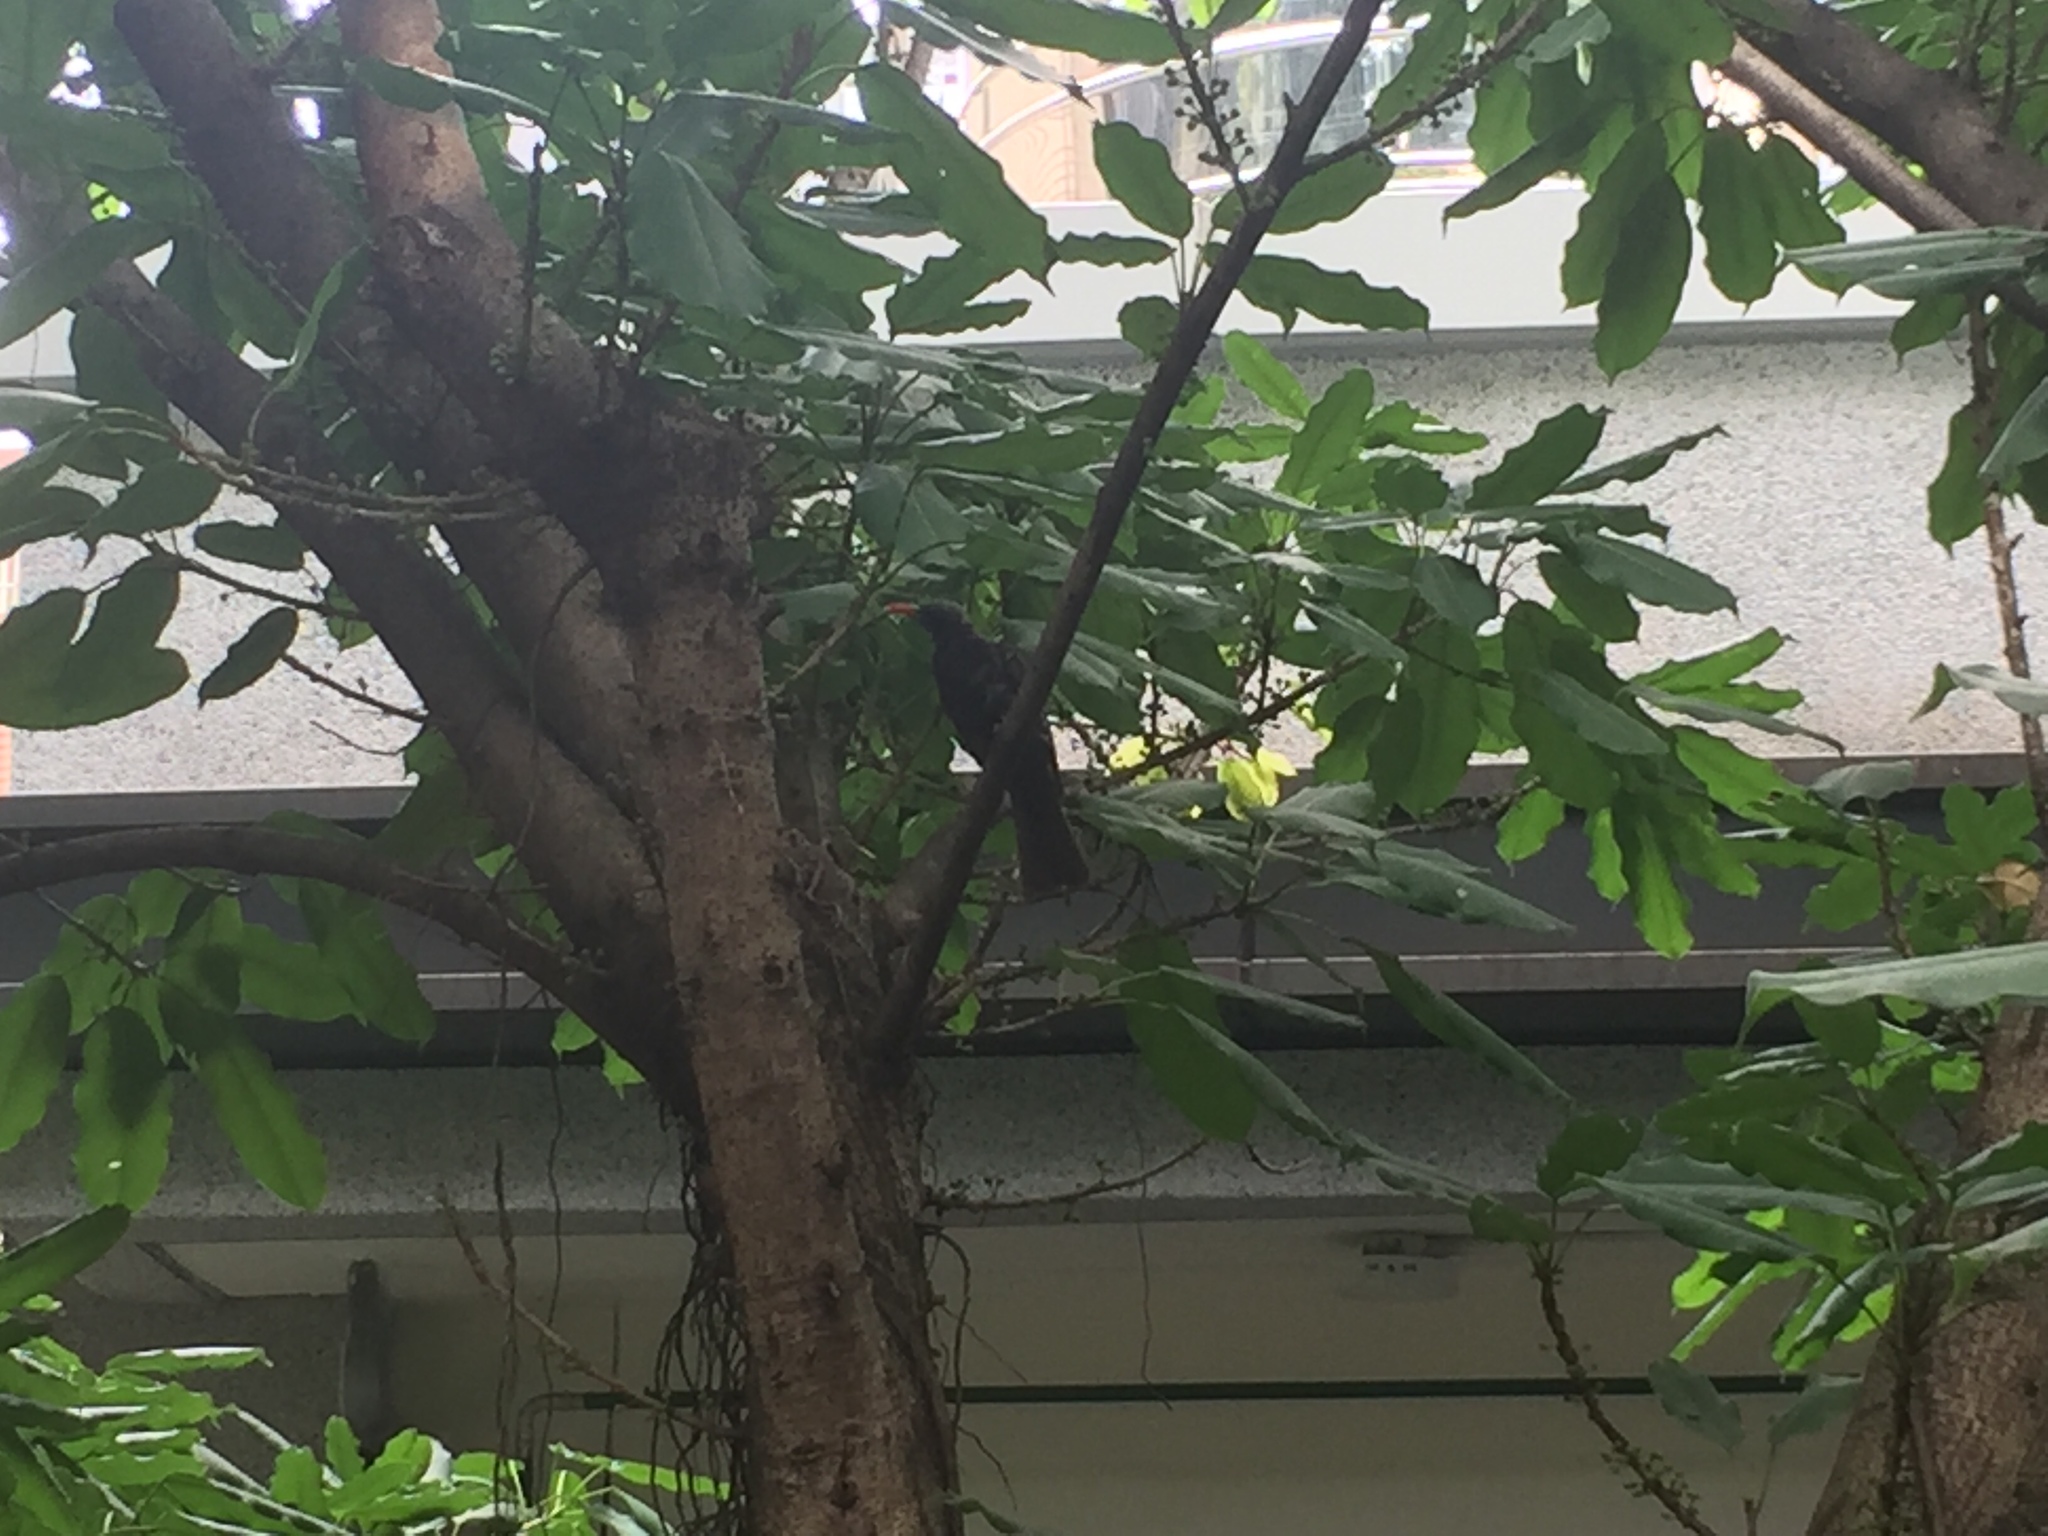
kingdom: Animalia
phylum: Chordata
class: Aves
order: Passeriformes
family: Pycnonotidae
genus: Hypsipetes
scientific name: Hypsipetes leucocephalus
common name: Black bulbul
